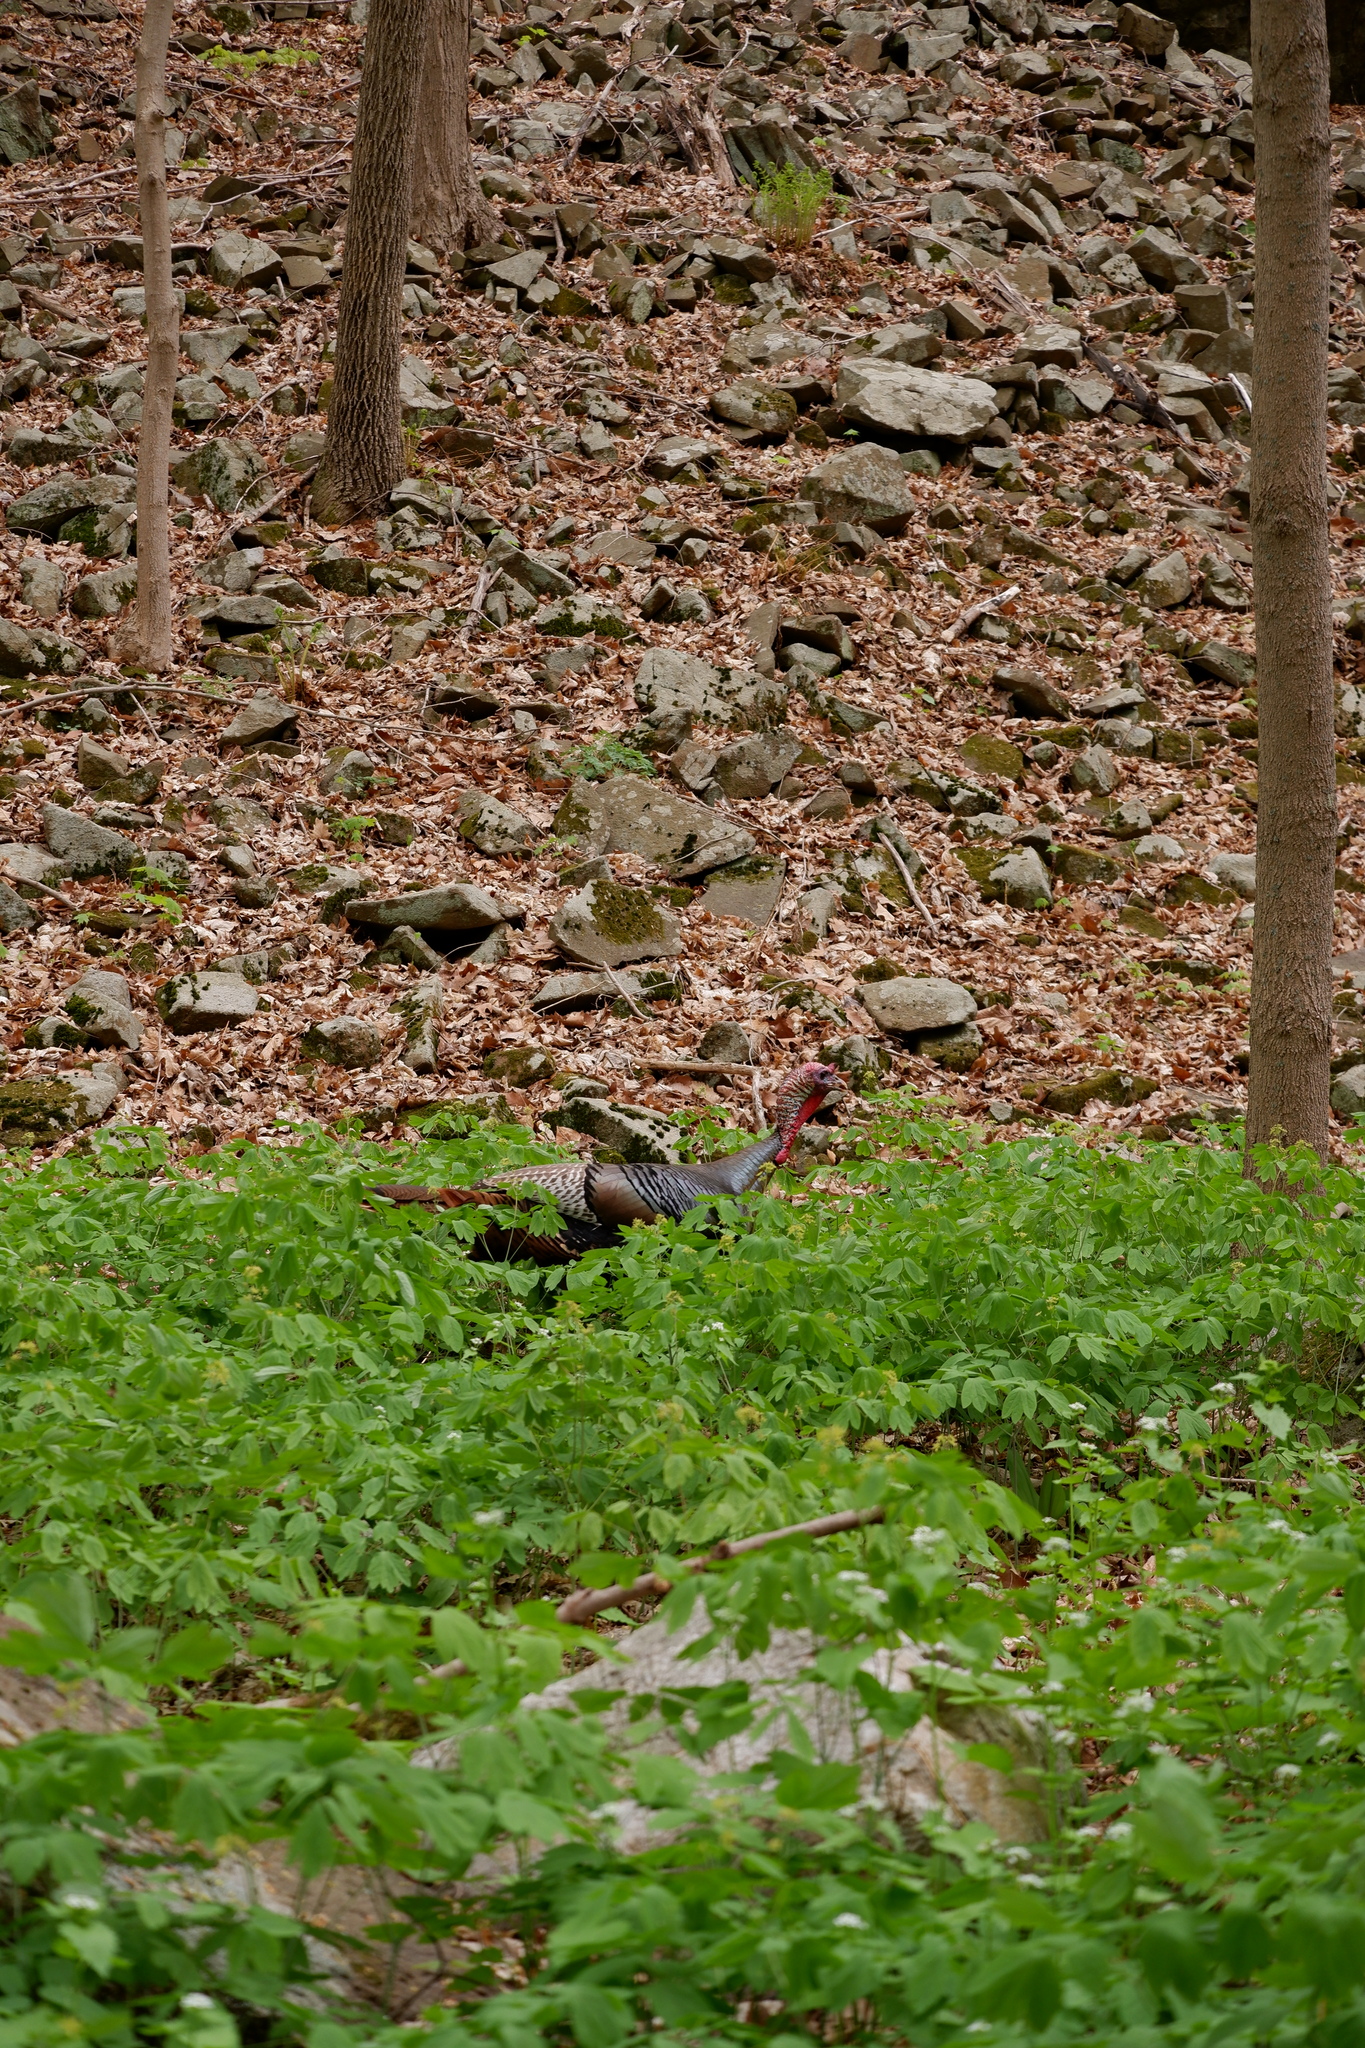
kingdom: Animalia
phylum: Chordata
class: Aves
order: Galliformes
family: Phasianidae
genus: Meleagris
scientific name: Meleagris gallopavo
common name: Wild turkey
